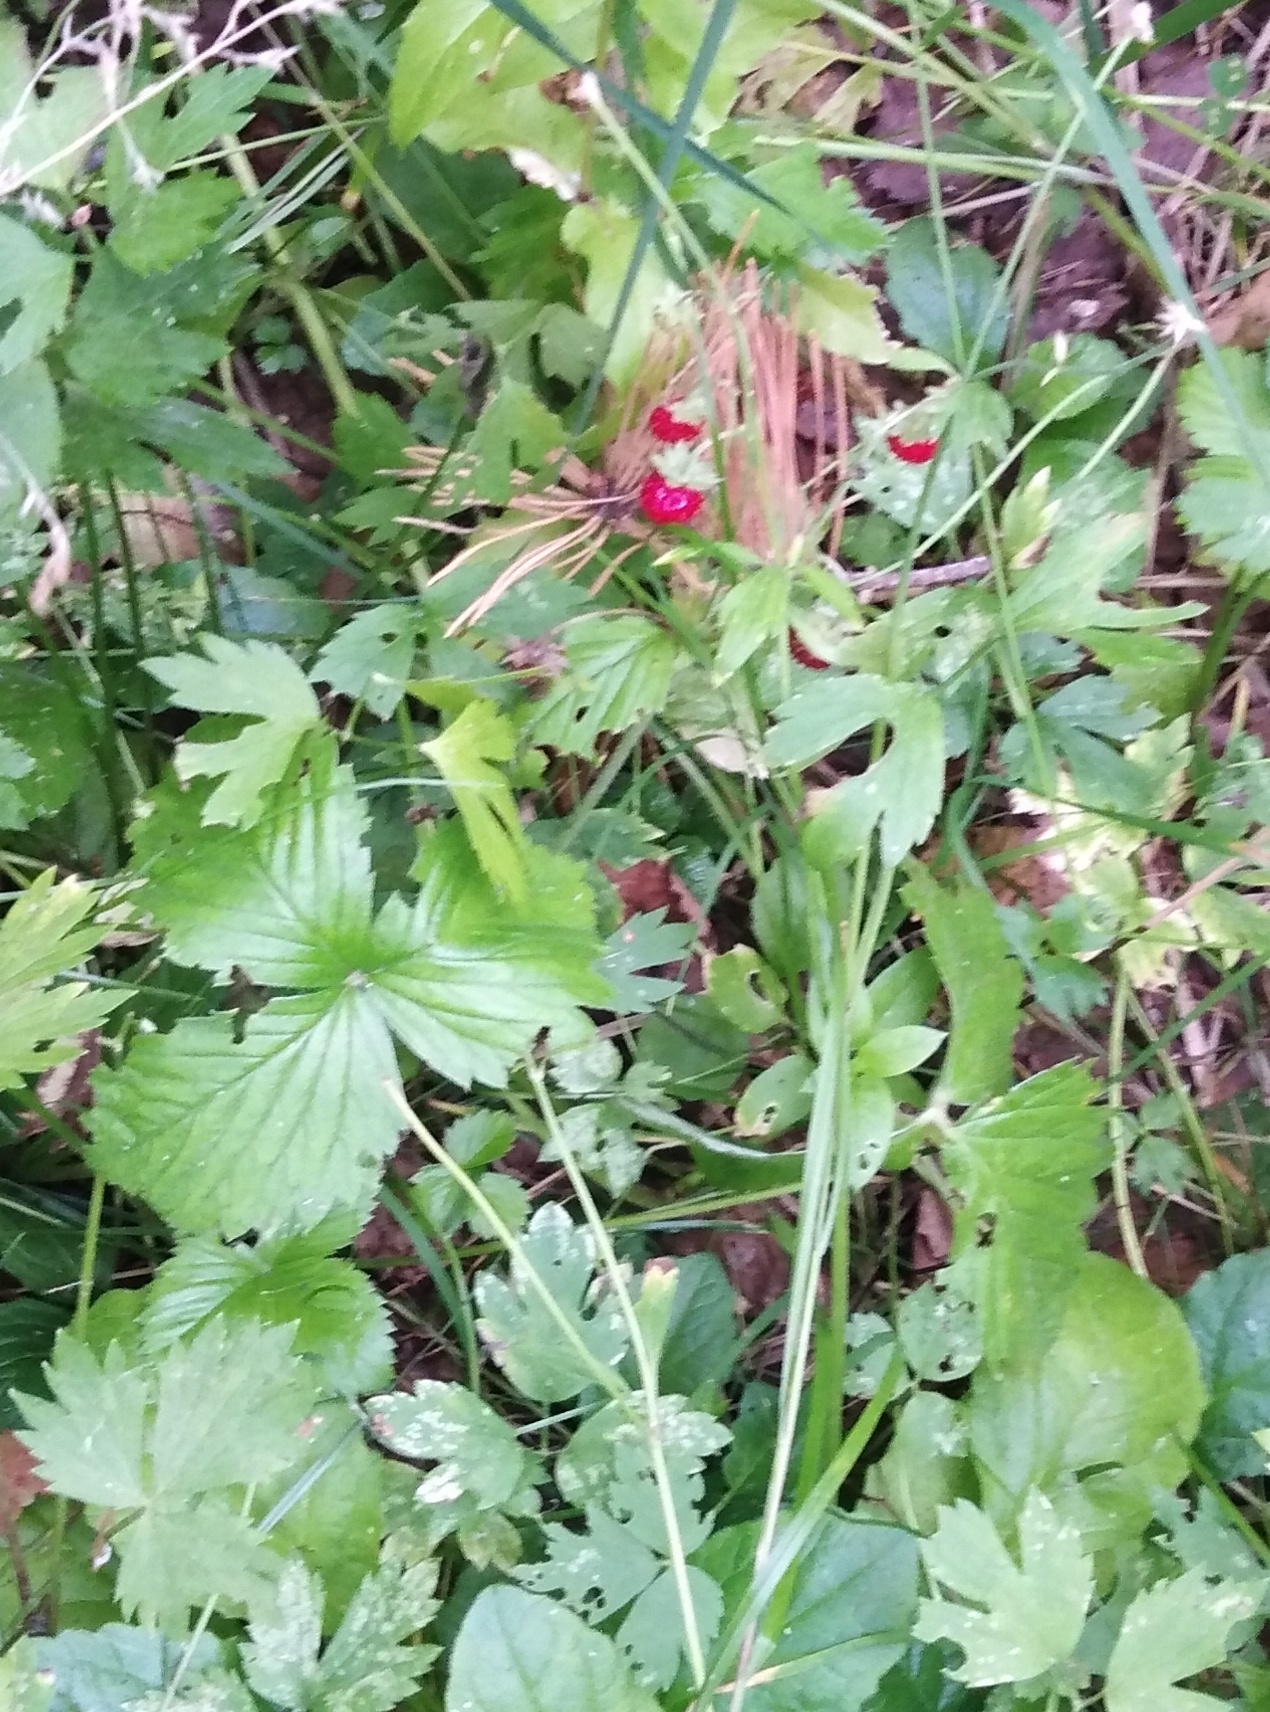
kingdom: Plantae
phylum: Tracheophyta
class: Magnoliopsida
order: Rosales
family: Rosaceae
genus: Fragaria
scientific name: Fragaria vesca
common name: Wild strawberry
